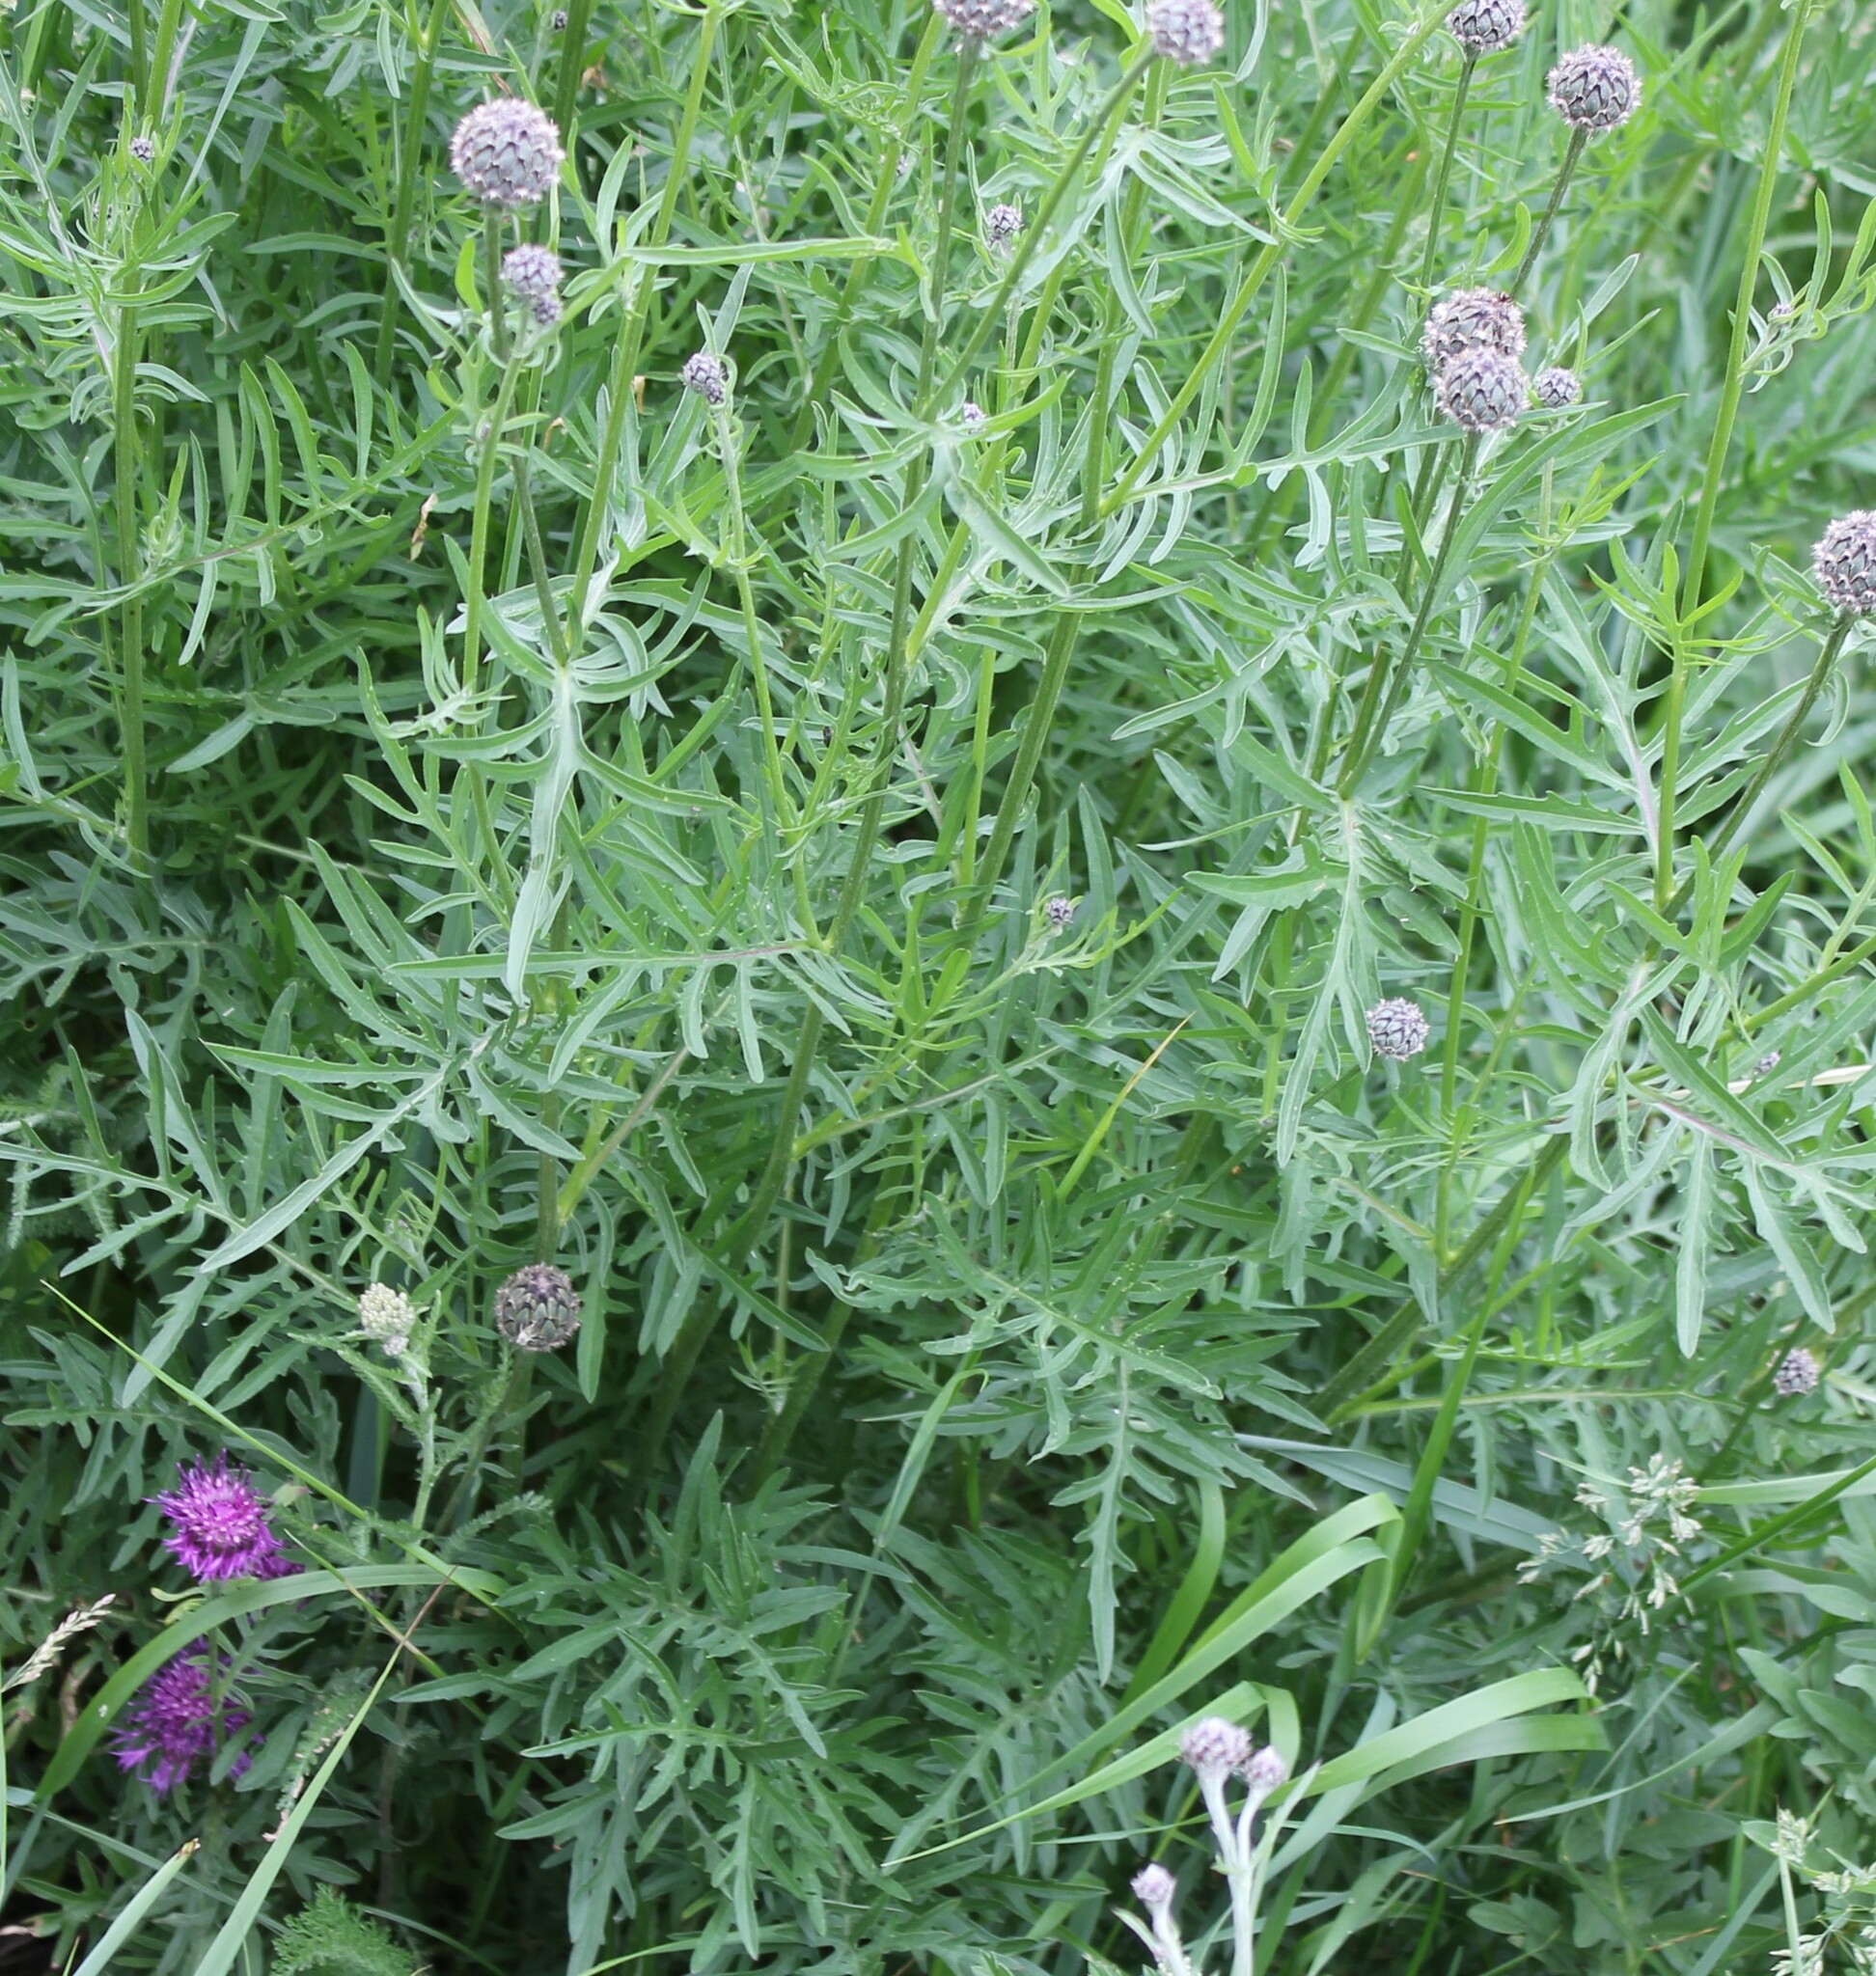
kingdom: Plantae
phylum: Tracheophyta
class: Magnoliopsida
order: Asterales
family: Asteraceae
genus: Centaurea
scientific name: Centaurea scabiosa
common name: Greater knapweed
